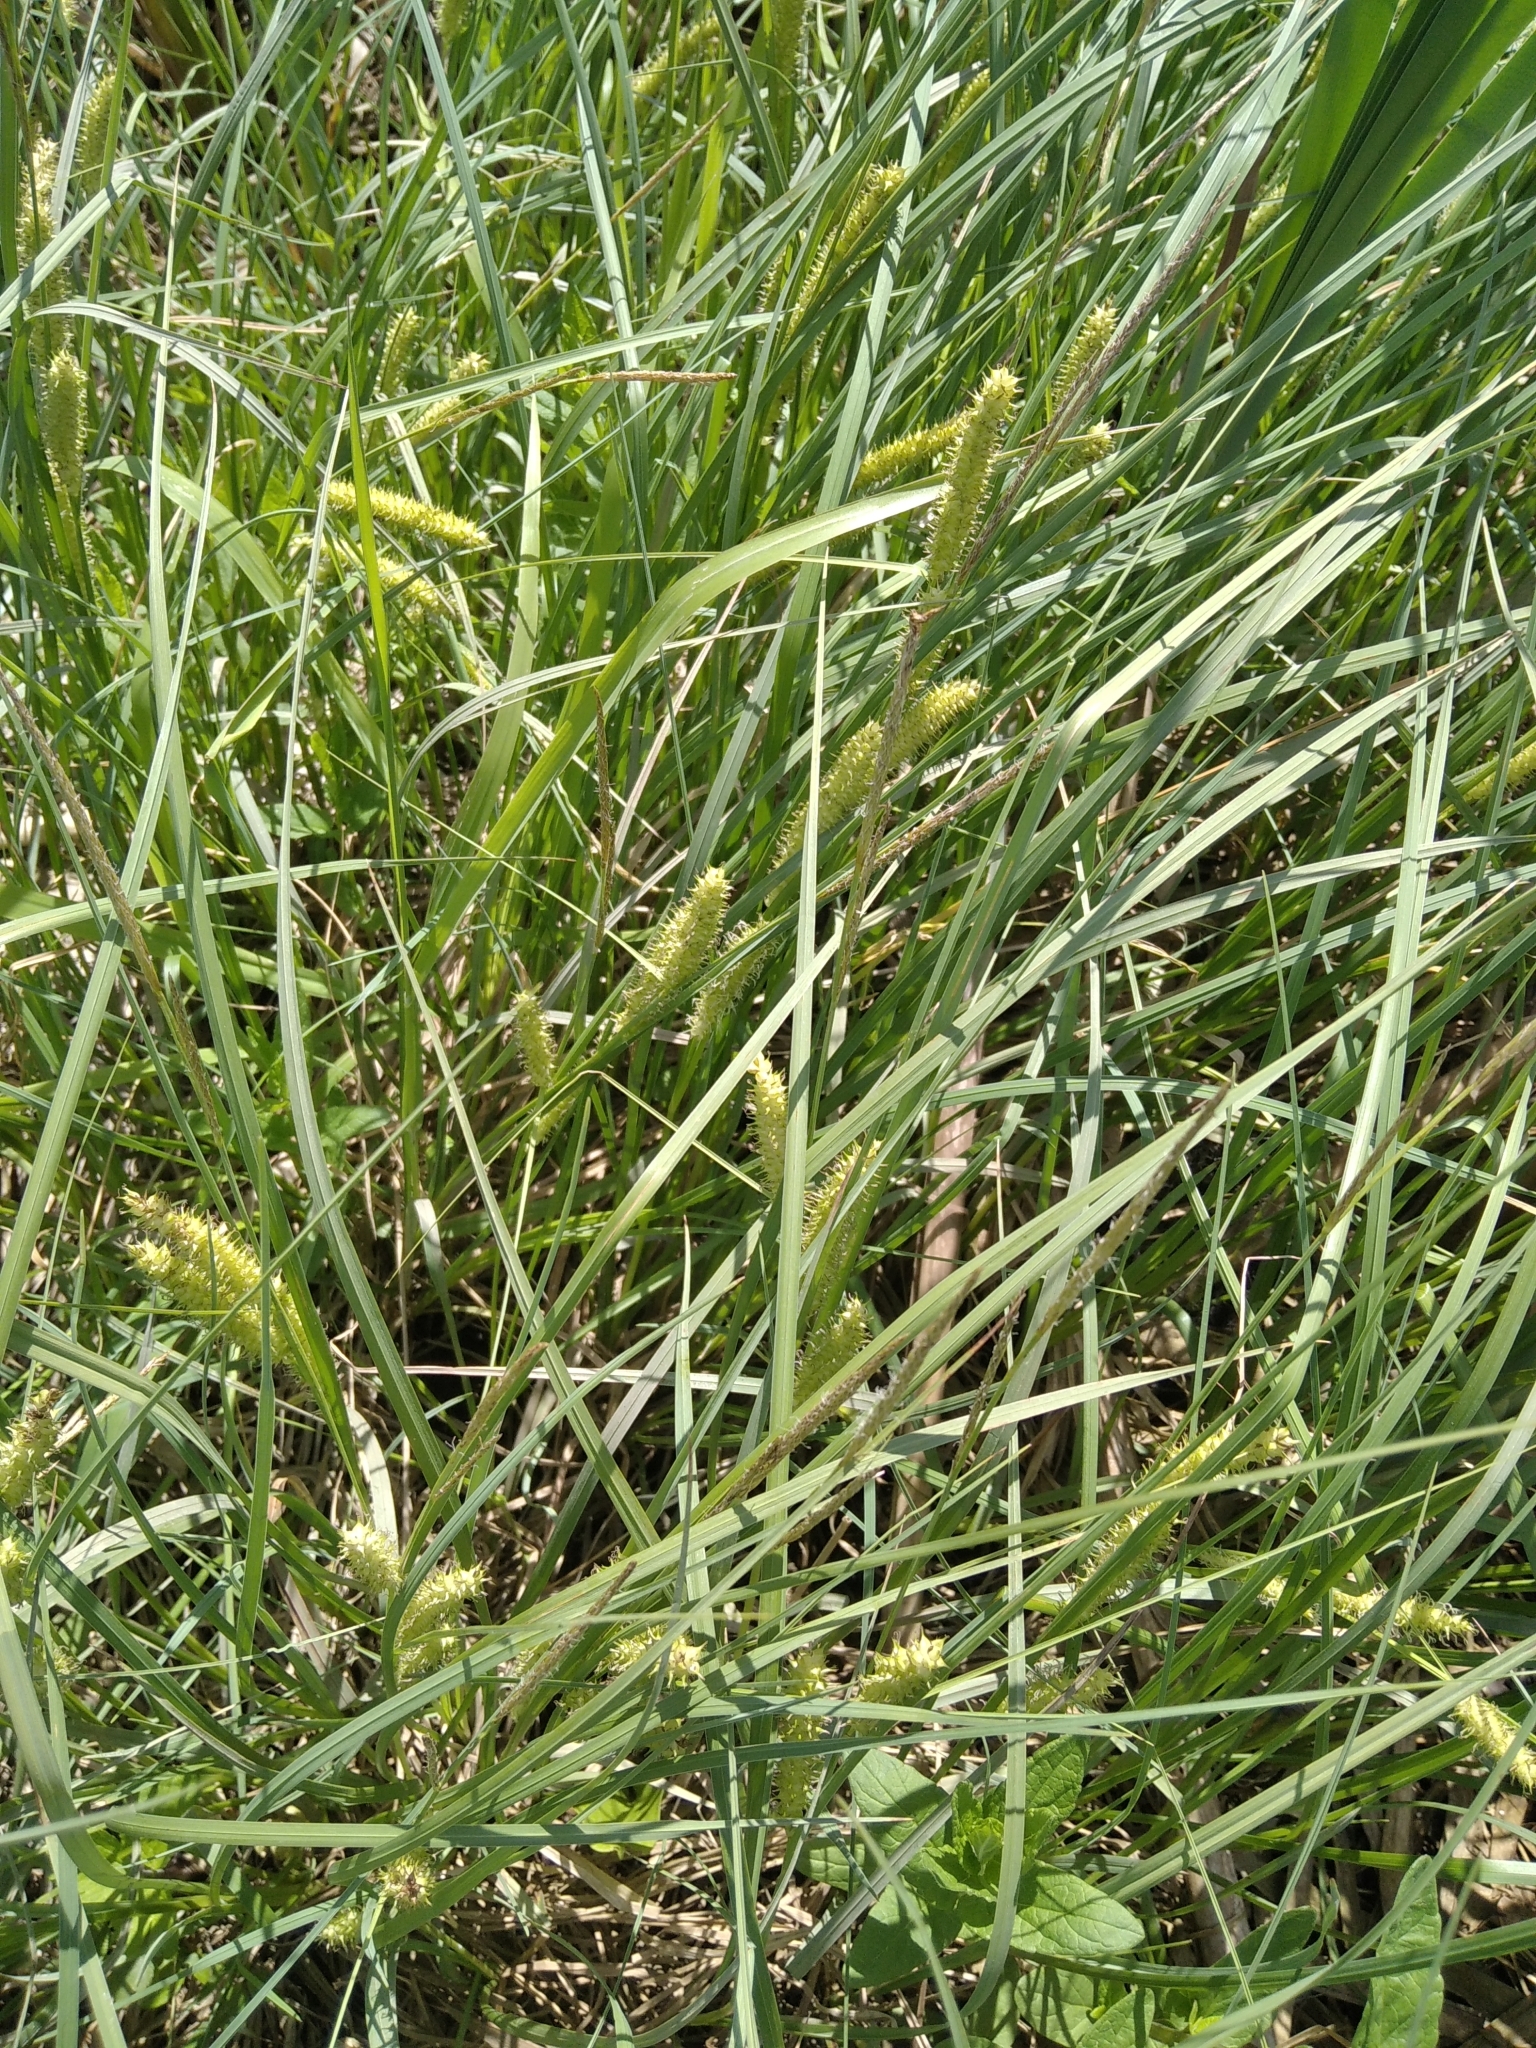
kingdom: Plantae
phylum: Tracheophyta
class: Liliopsida
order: Poales
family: Cyperaceae
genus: Carex
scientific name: Carex rostrata
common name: Bottle sedge
